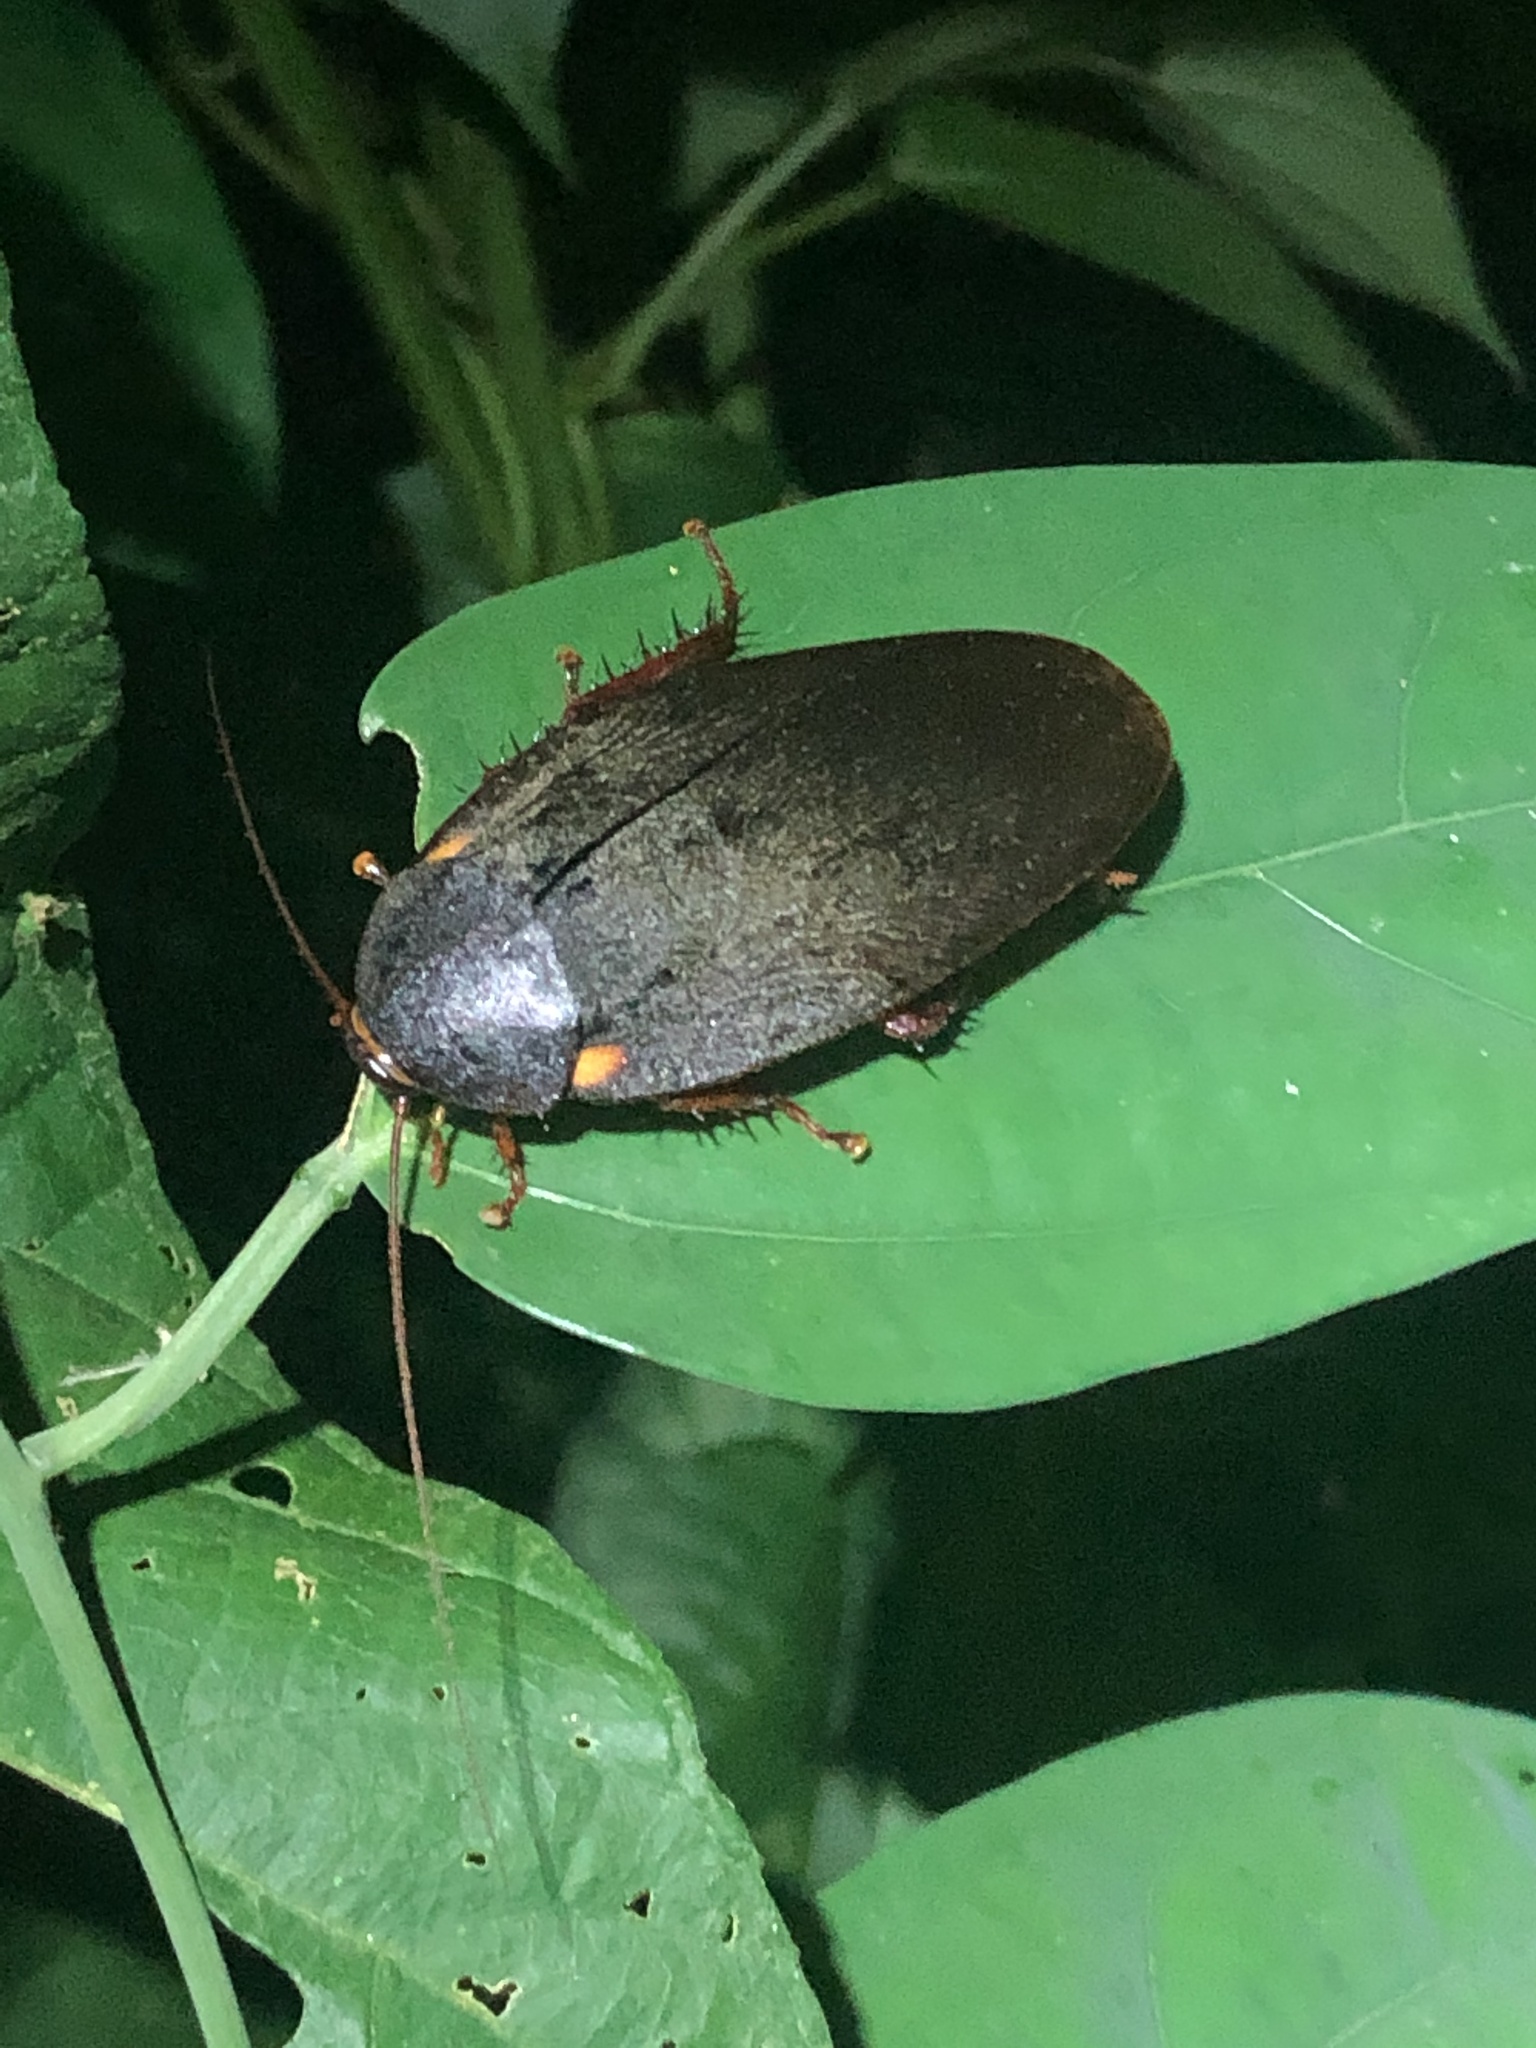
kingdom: Animalia
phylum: Arthropoda
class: Insecta
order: Blattodea
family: Ectobiidae
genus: Nyctibora
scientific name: Nyctibora humeralis
